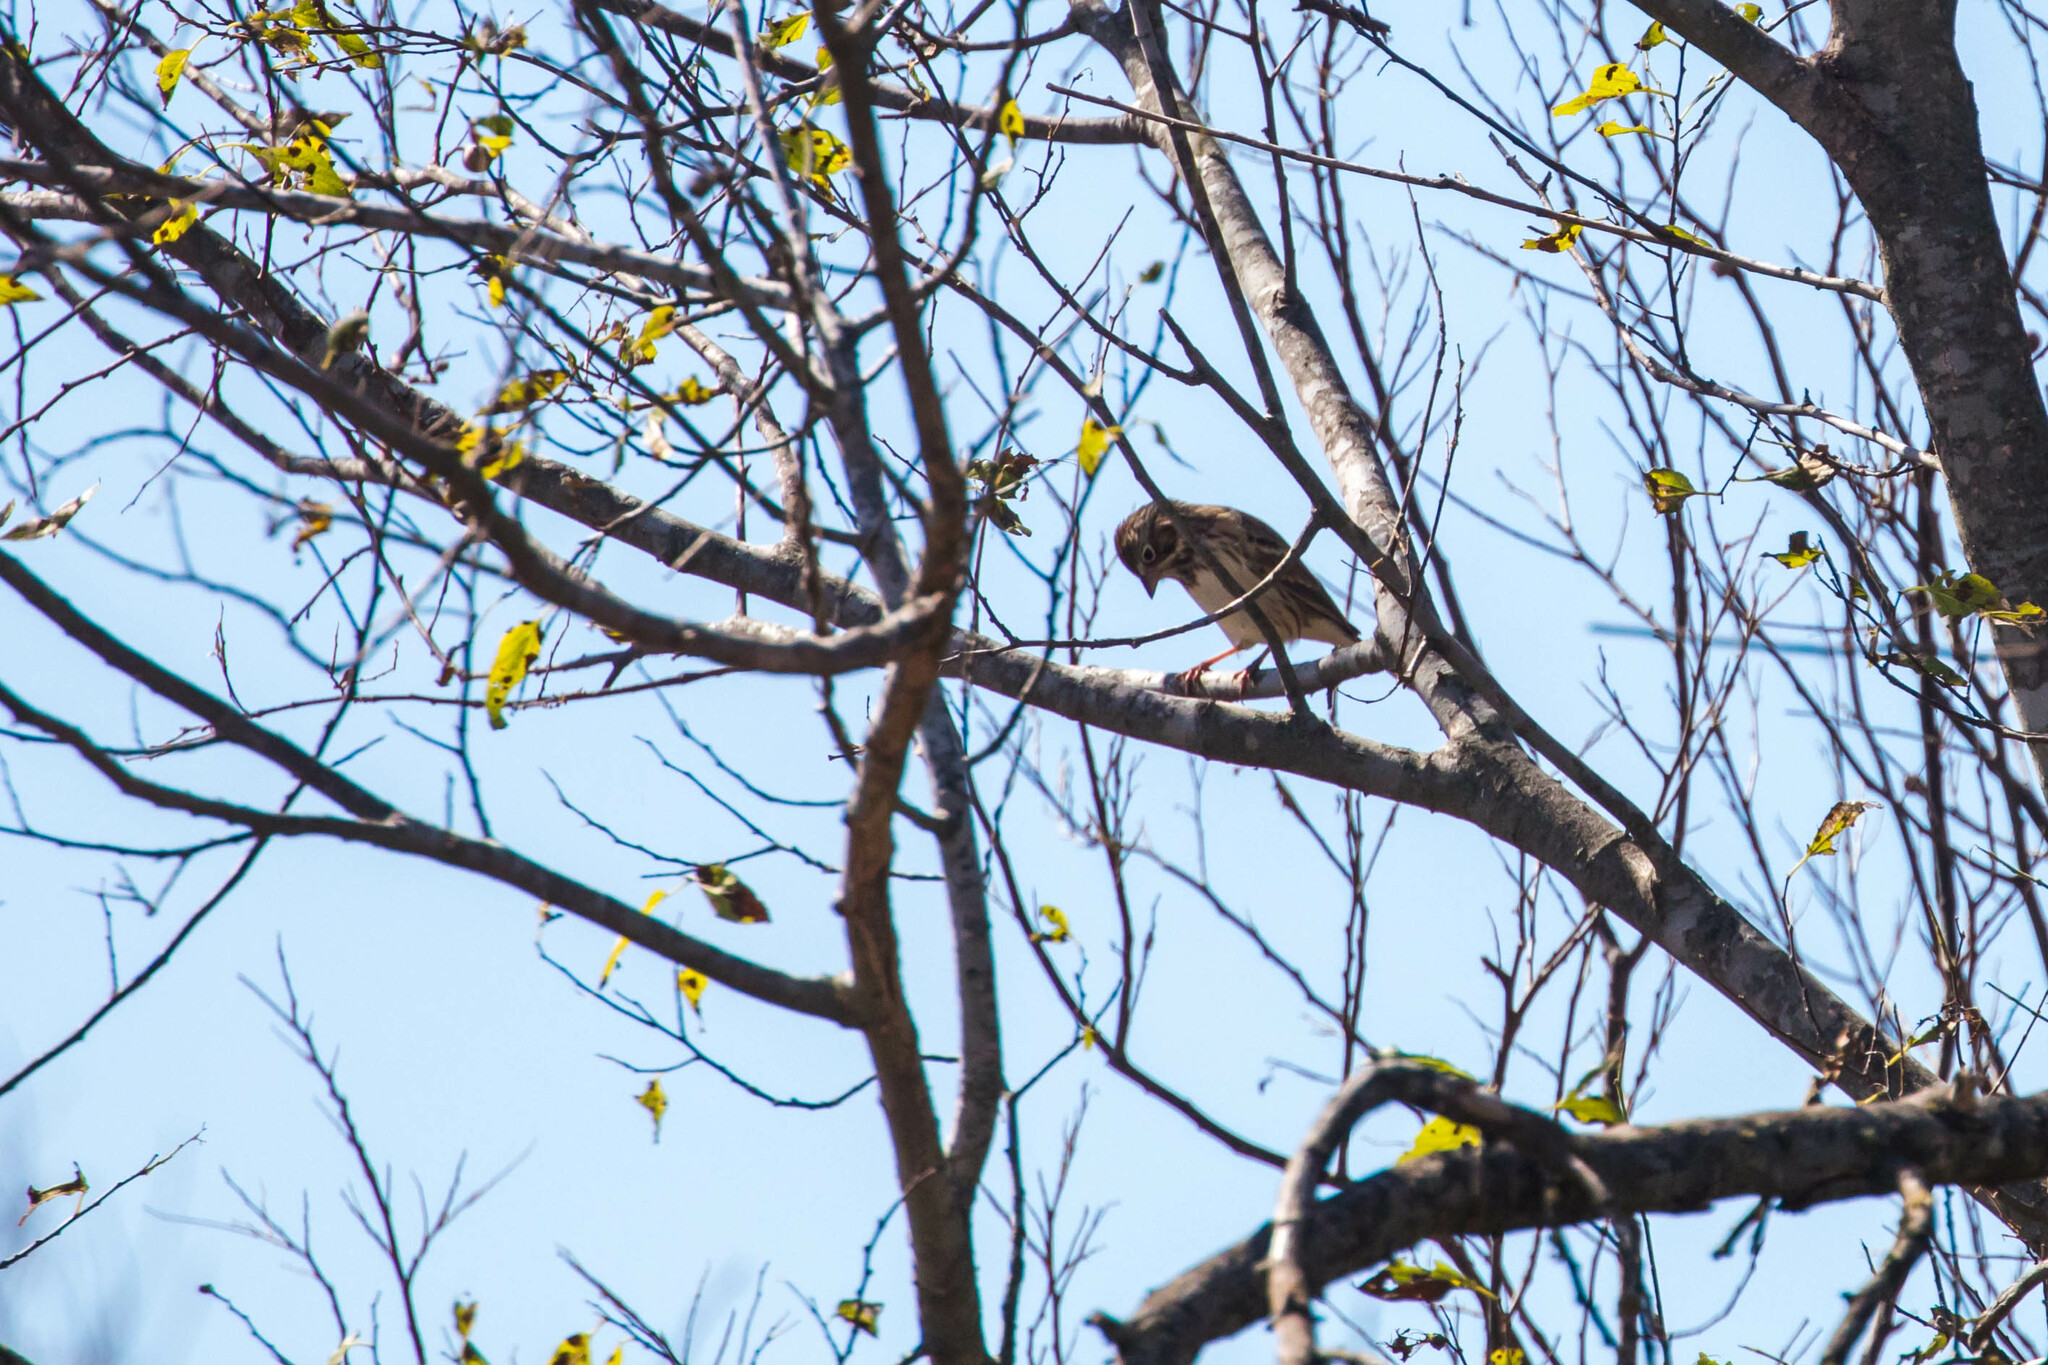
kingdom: Animalia
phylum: Chordata
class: Aves
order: Passeriformes
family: Passerellidae
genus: Pooecetes
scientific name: Pooecetes gramineus
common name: Vesper sparrow
